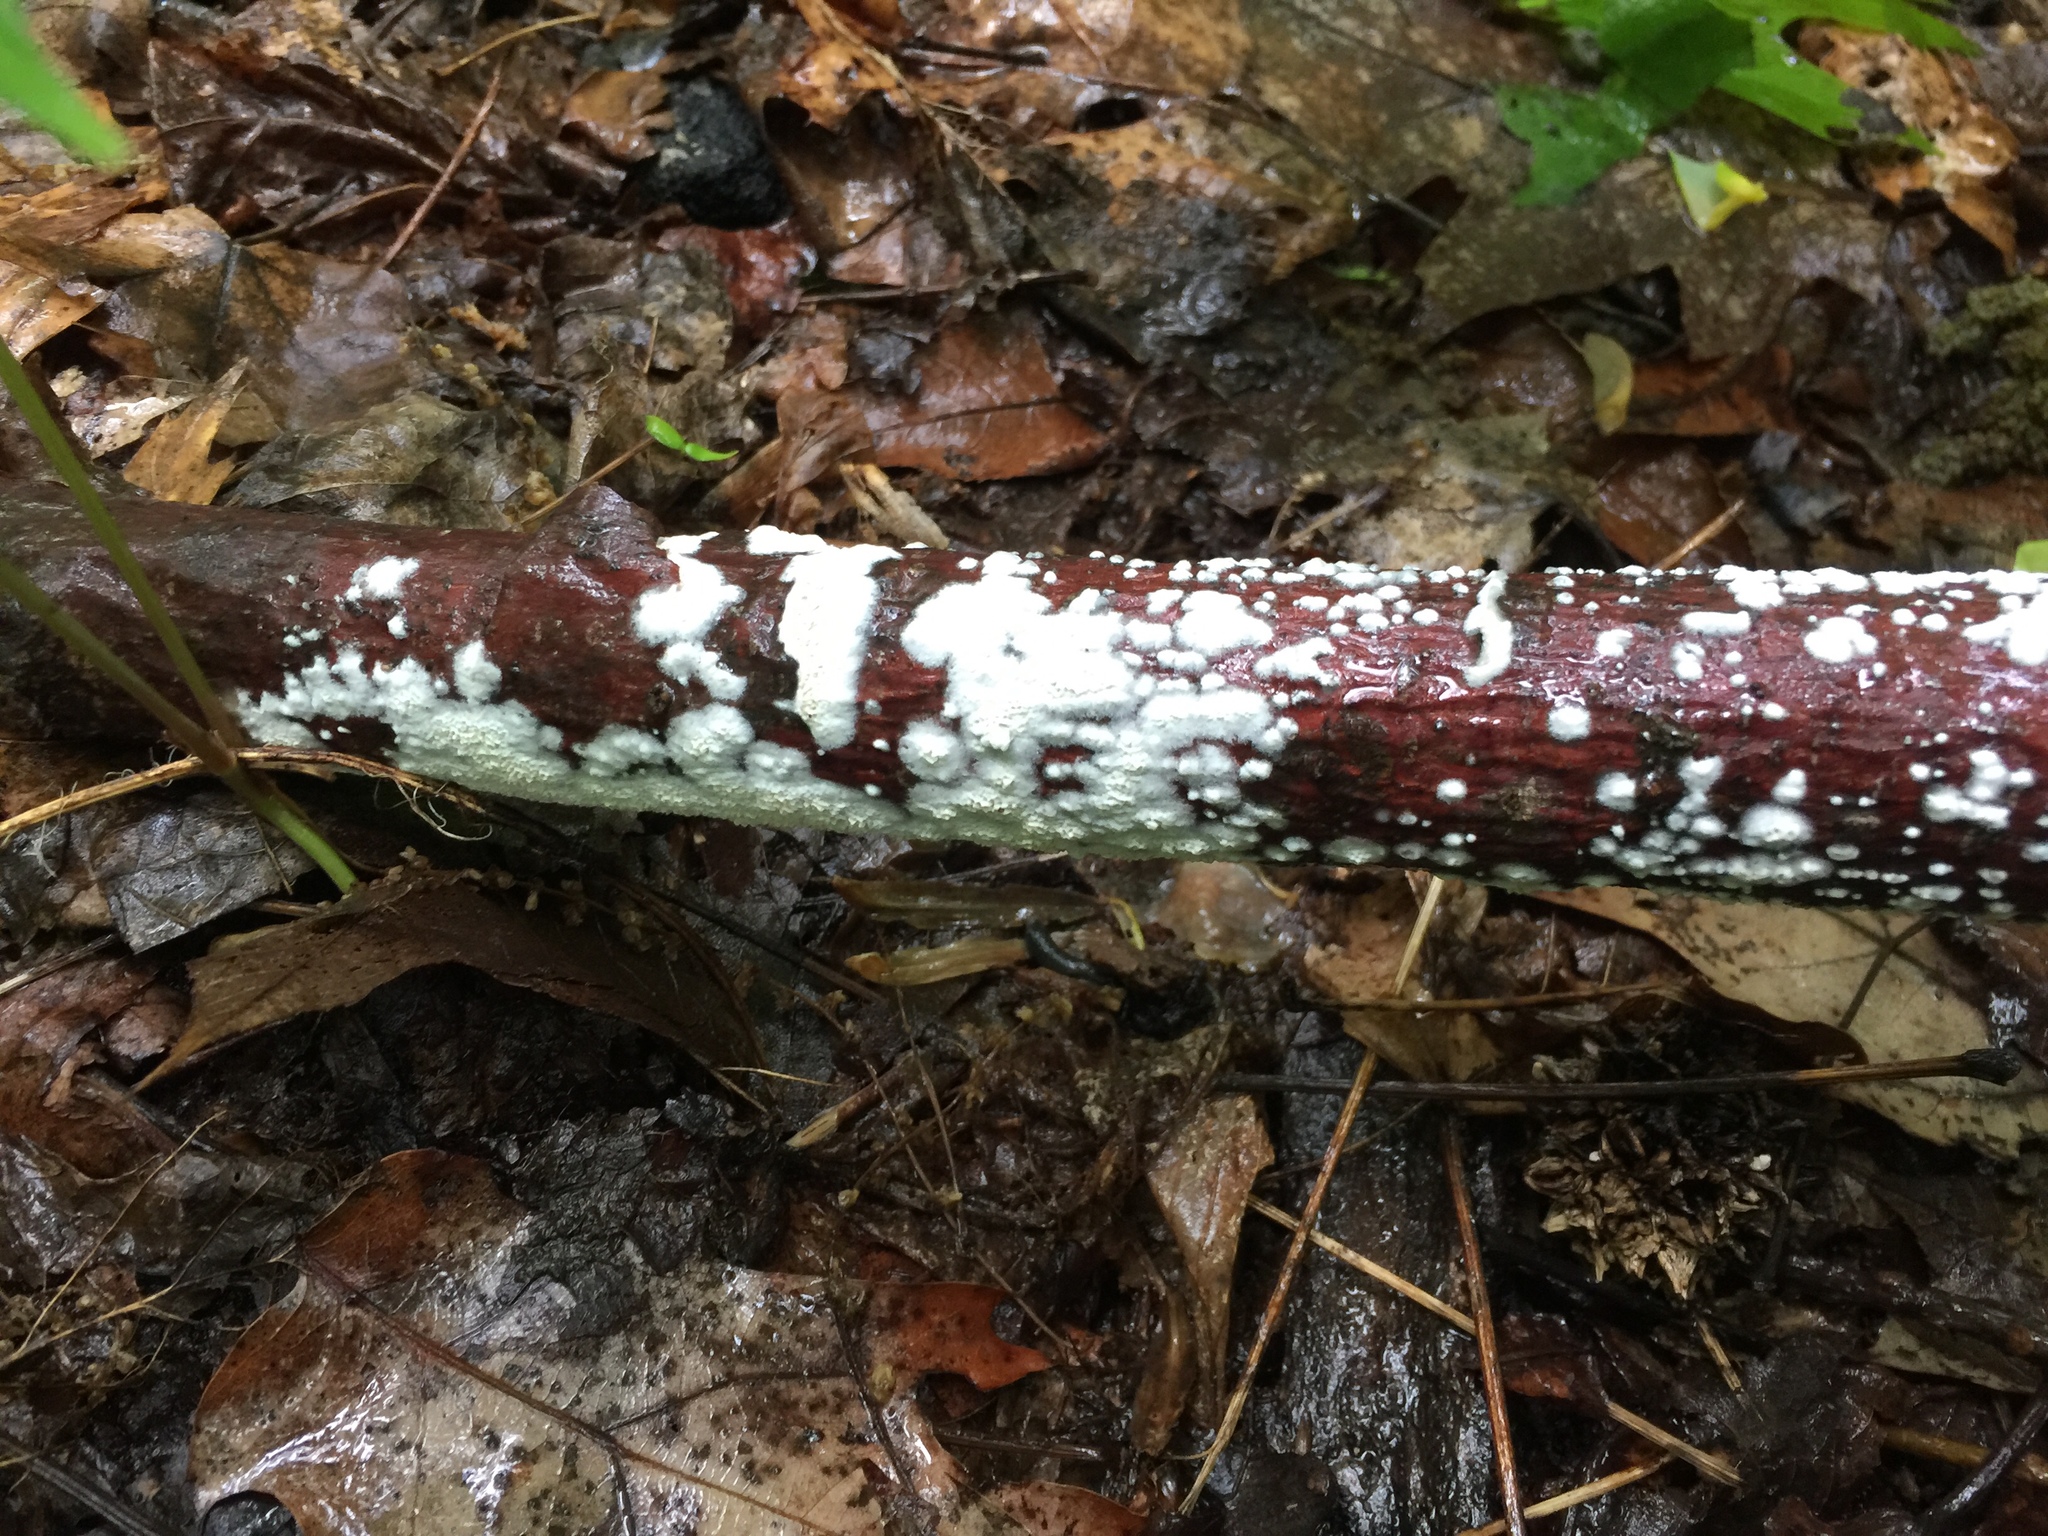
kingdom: Fungi
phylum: Basidiomycota
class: Agaricomycetes
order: Polyporales
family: Irpicaceae
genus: Irpex
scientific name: Irpex lacteus
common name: Milk-white toothed polypore
